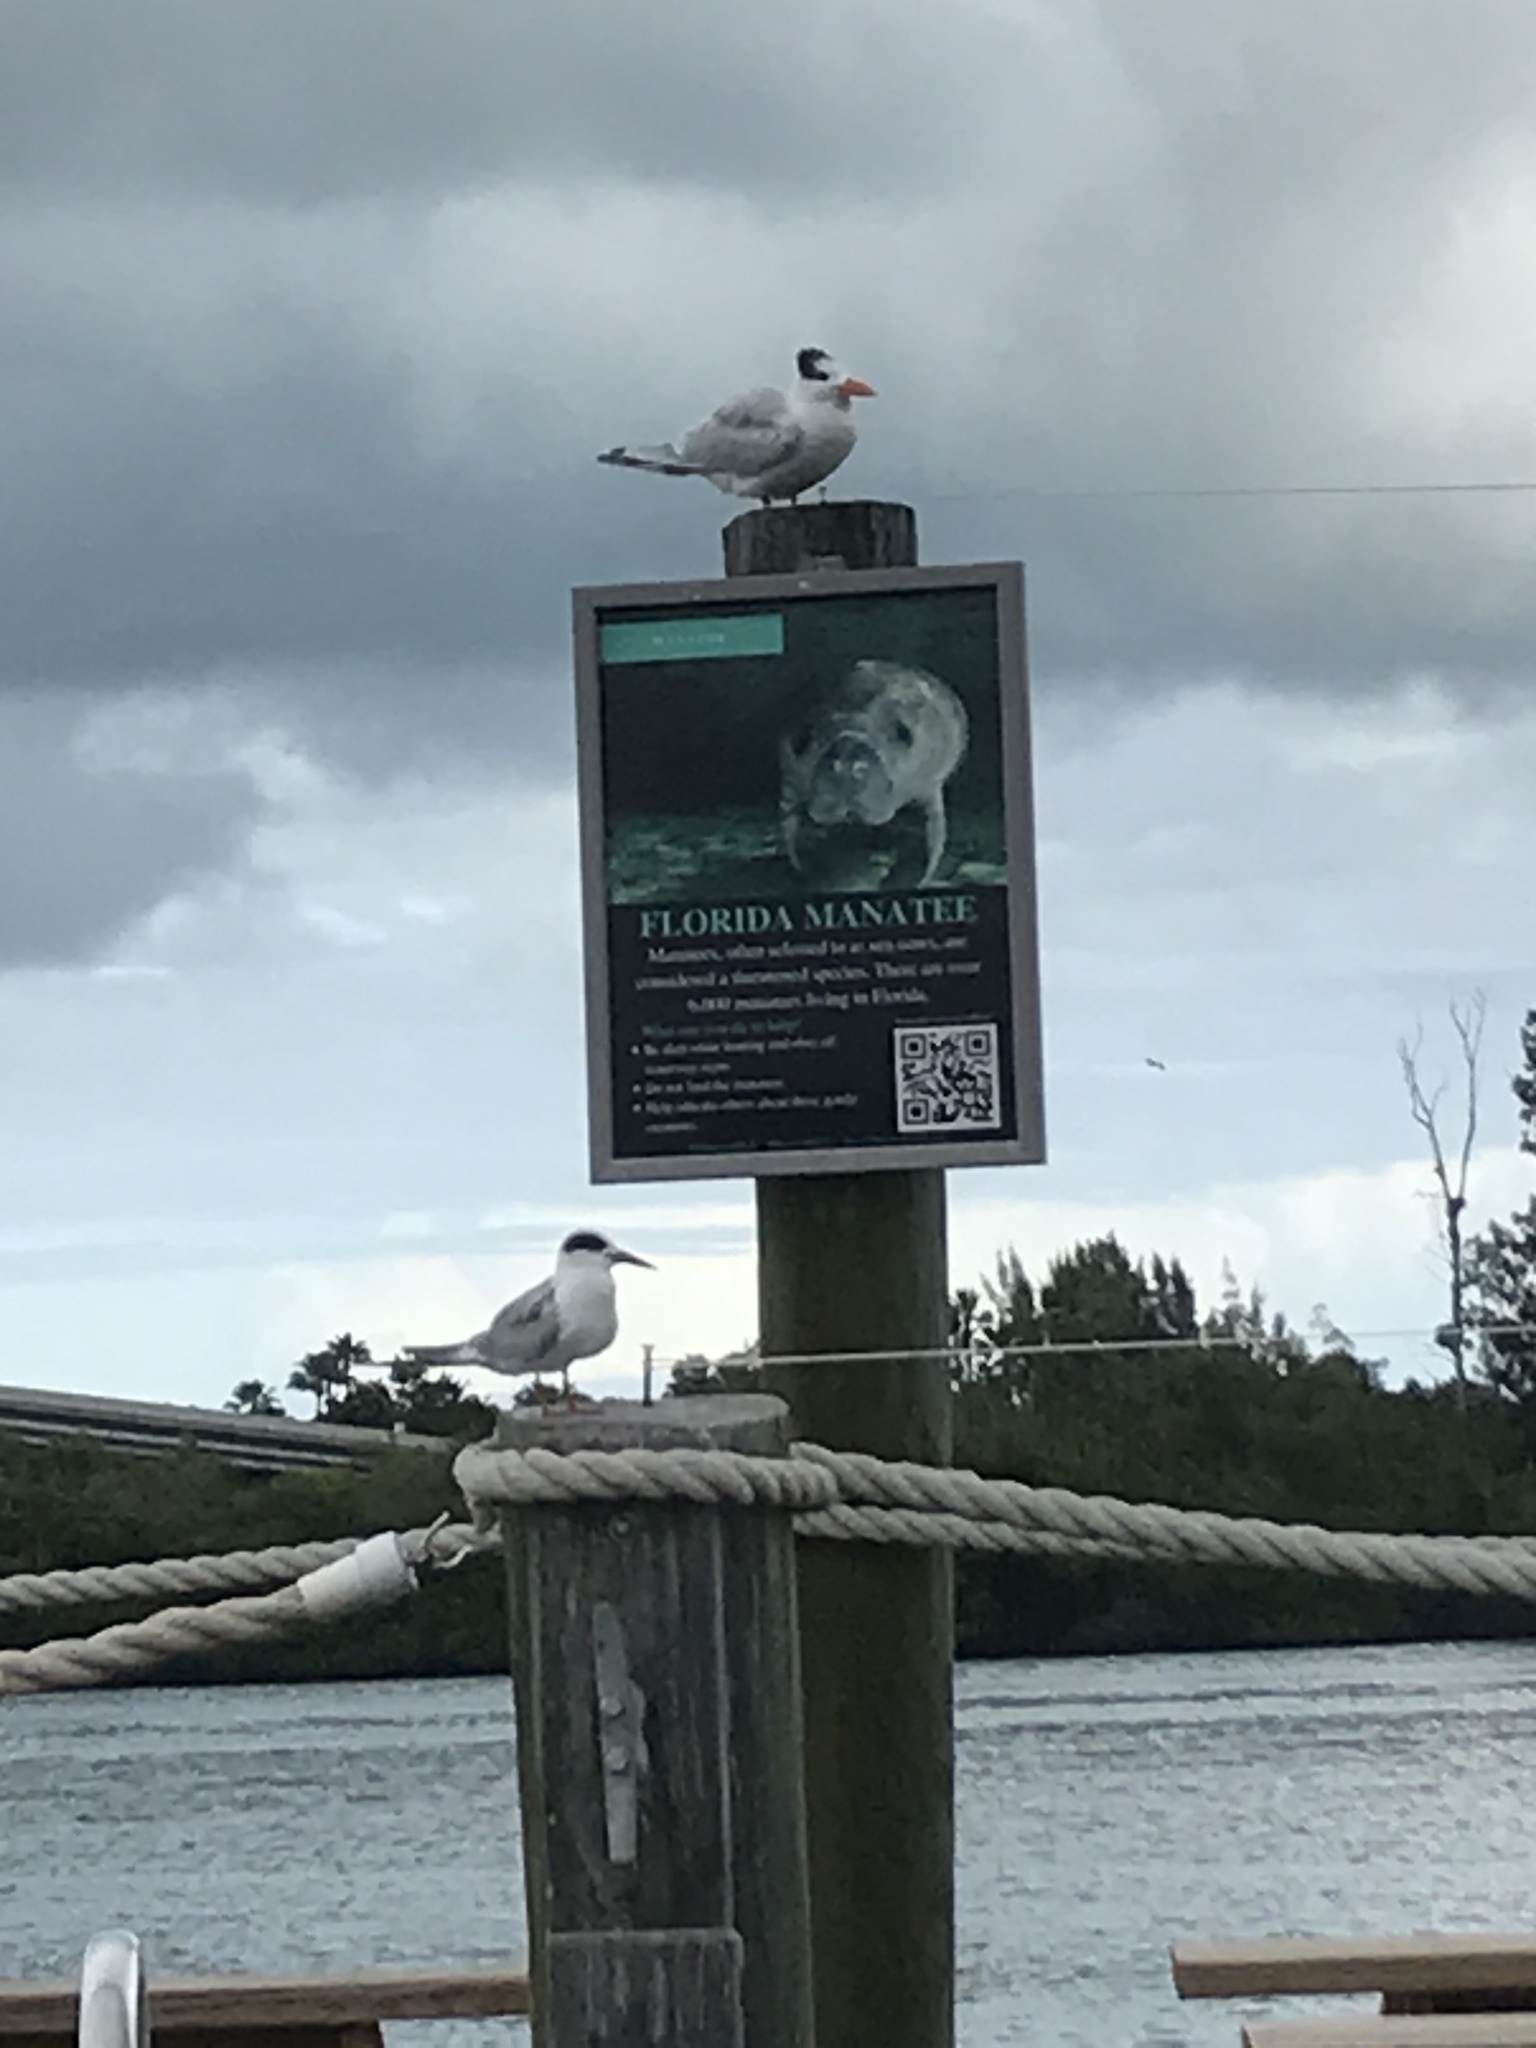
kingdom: Animalia
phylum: Chordata
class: Aves
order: Charadriiformes
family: Laridae
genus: Thalasseus
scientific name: Thalasseus maximus
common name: Royal tern
